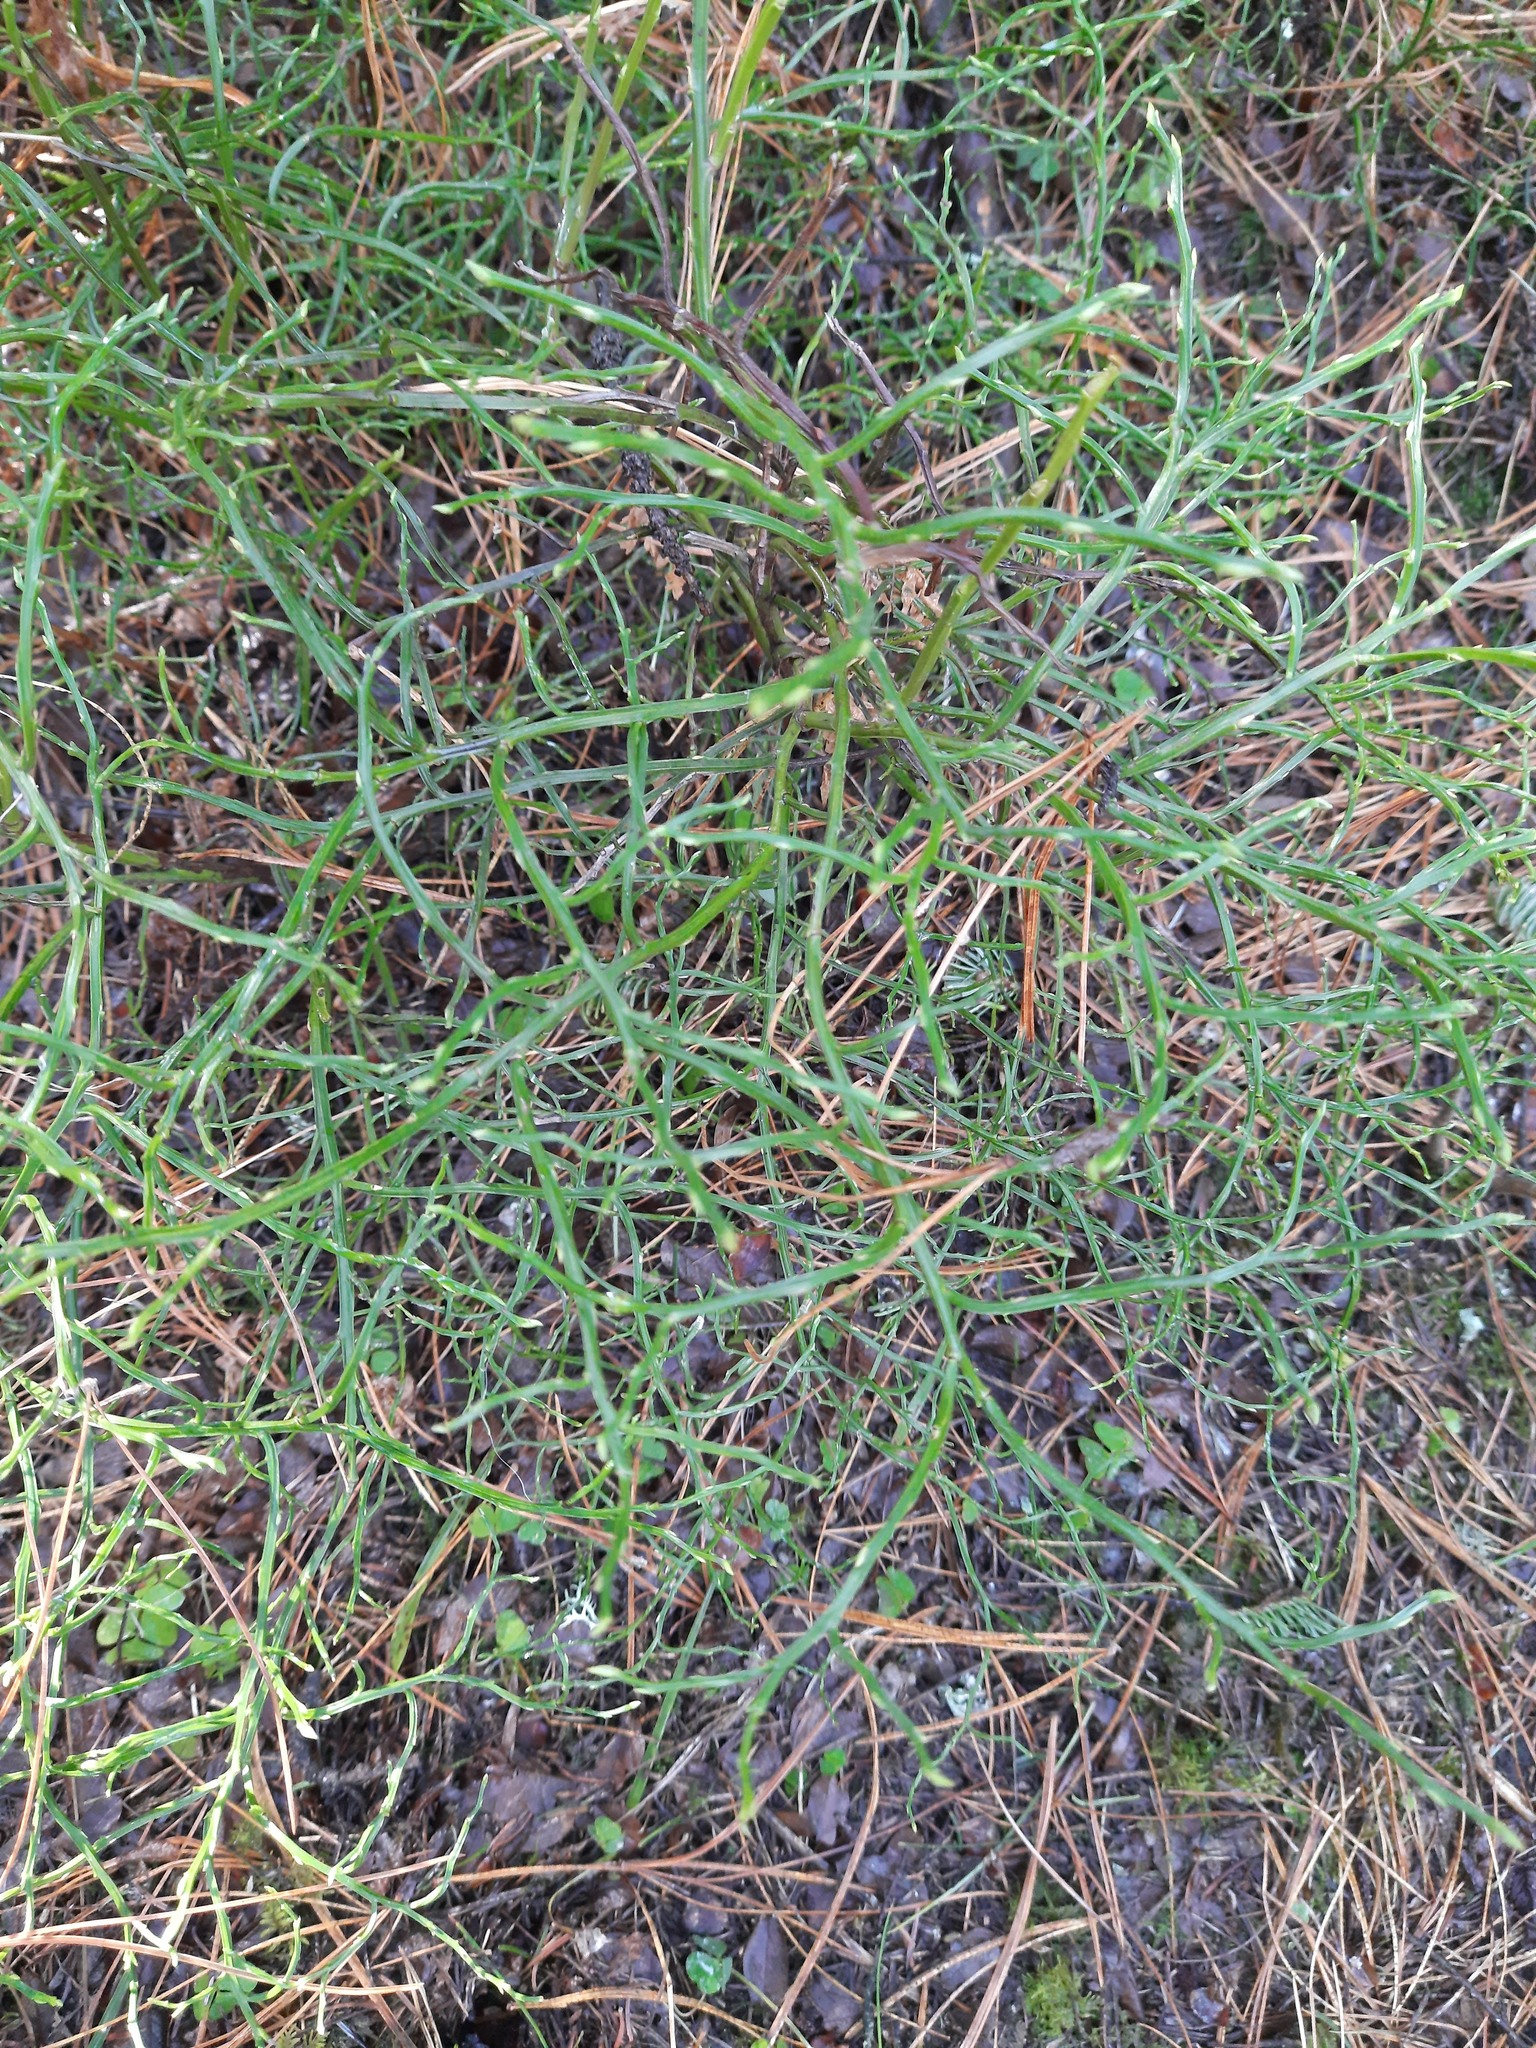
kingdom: Plantae
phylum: Tracheophyta
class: Magnoliopsida
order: Ericales
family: Ericaceae
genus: Vaccinium
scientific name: Vaccinium myrtillus
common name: Bilberry
